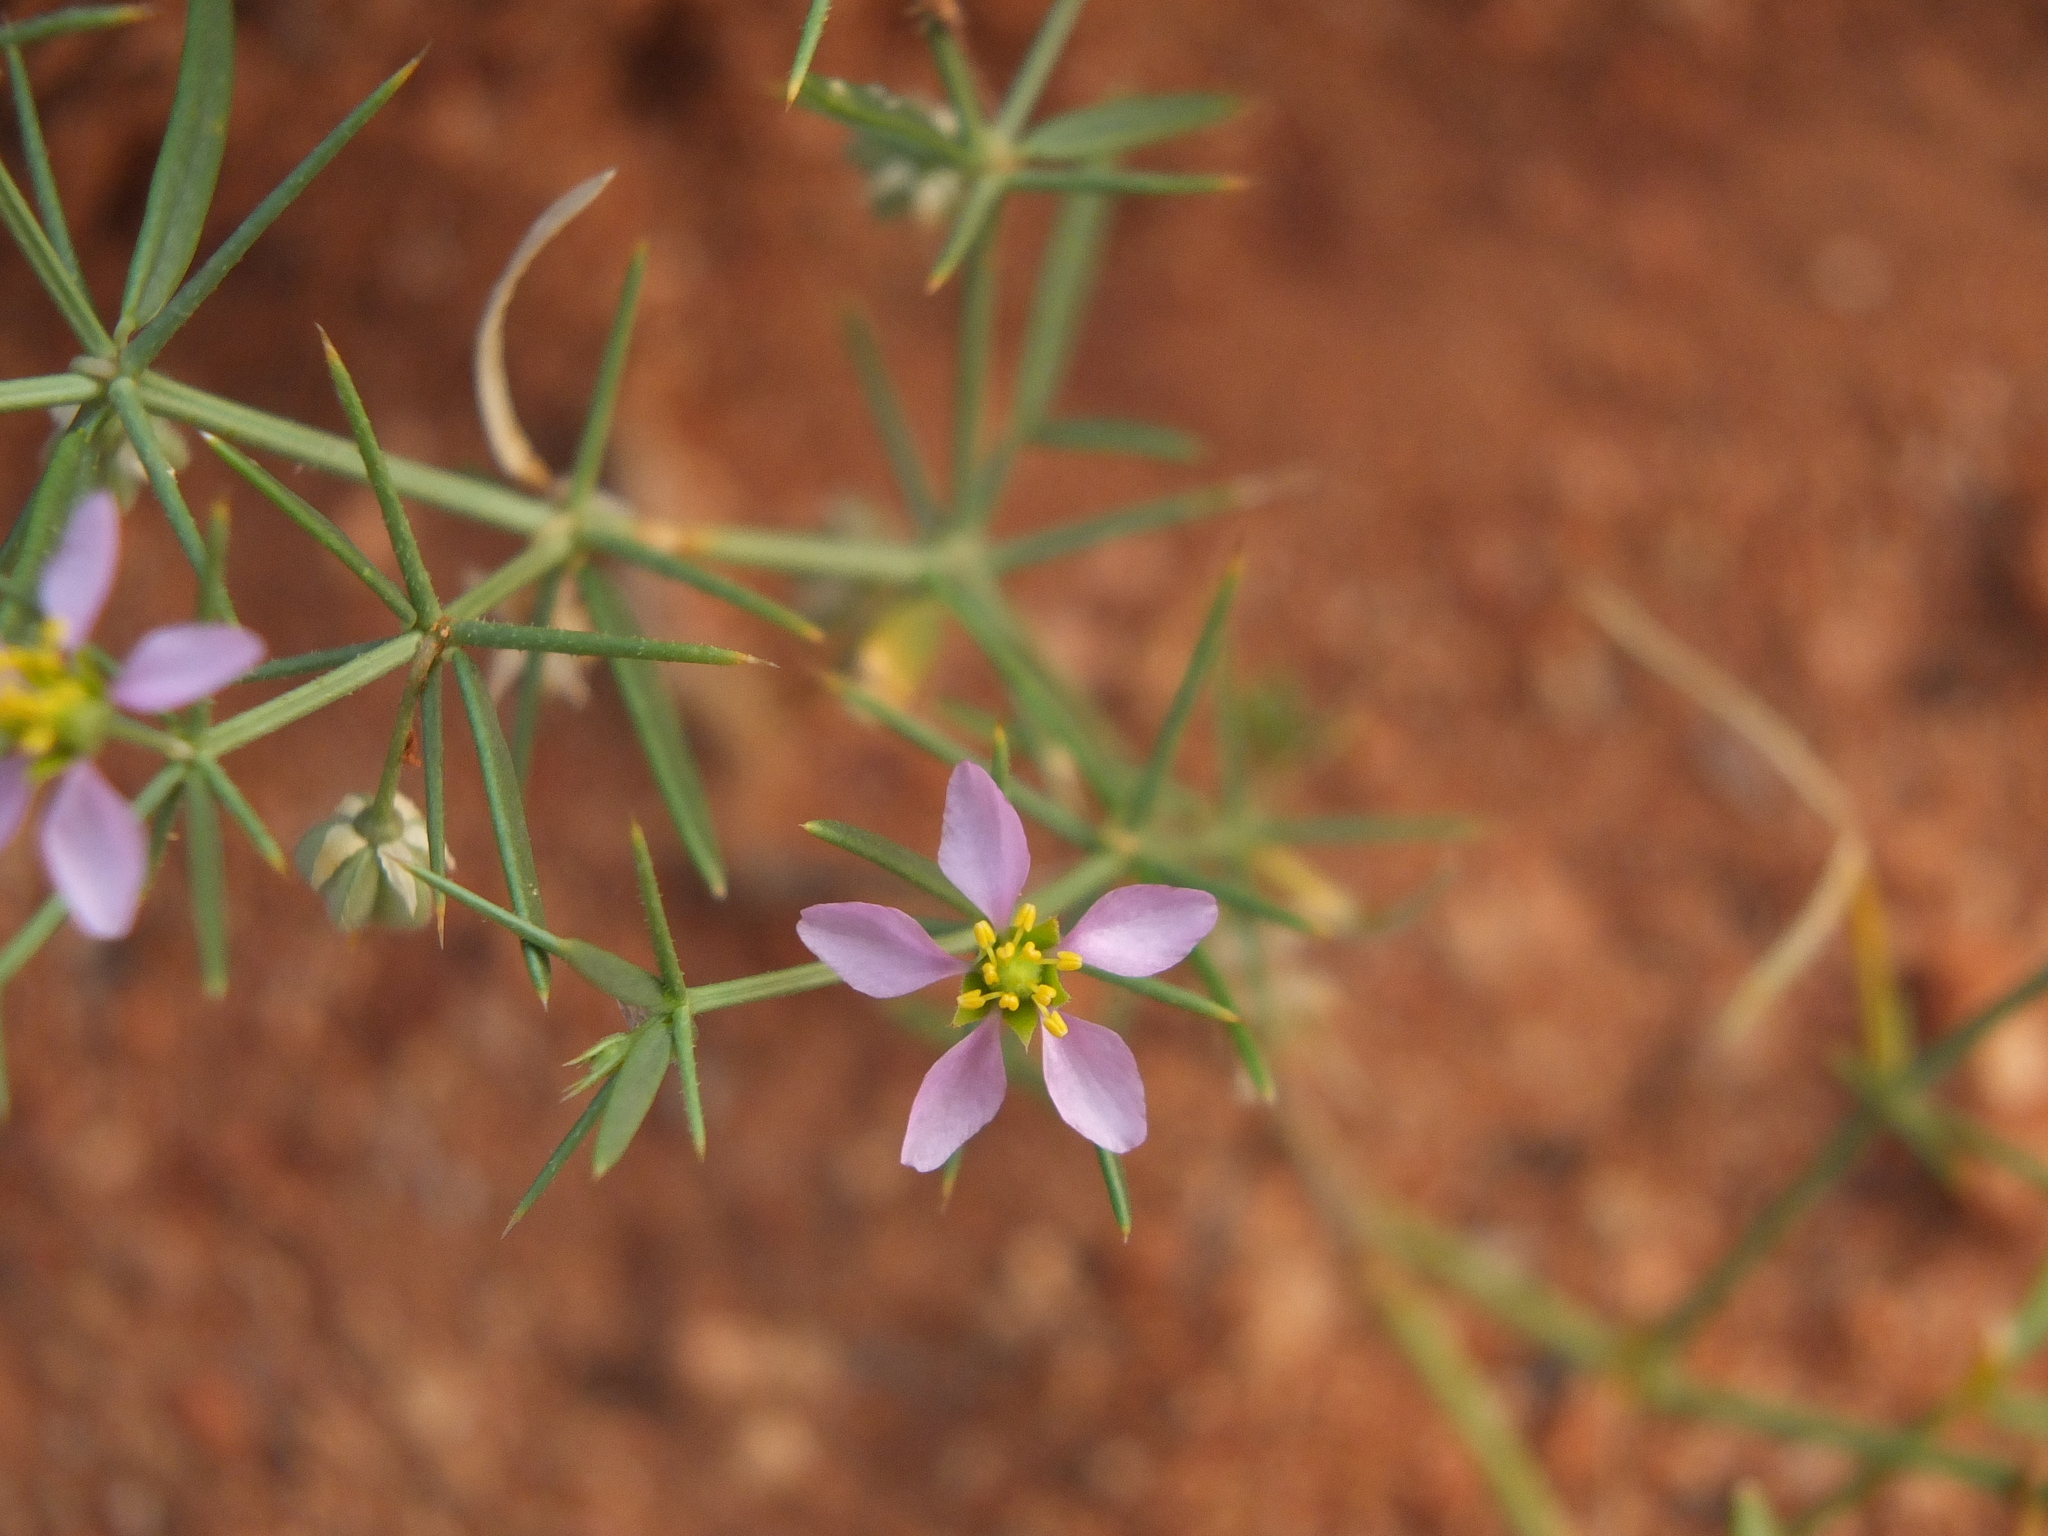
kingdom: Plantae
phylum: Tracheophyta
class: Magnoliopsida
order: Zygophyllales
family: Zygophyllaceae
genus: Fagonia
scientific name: Fagonia indica
